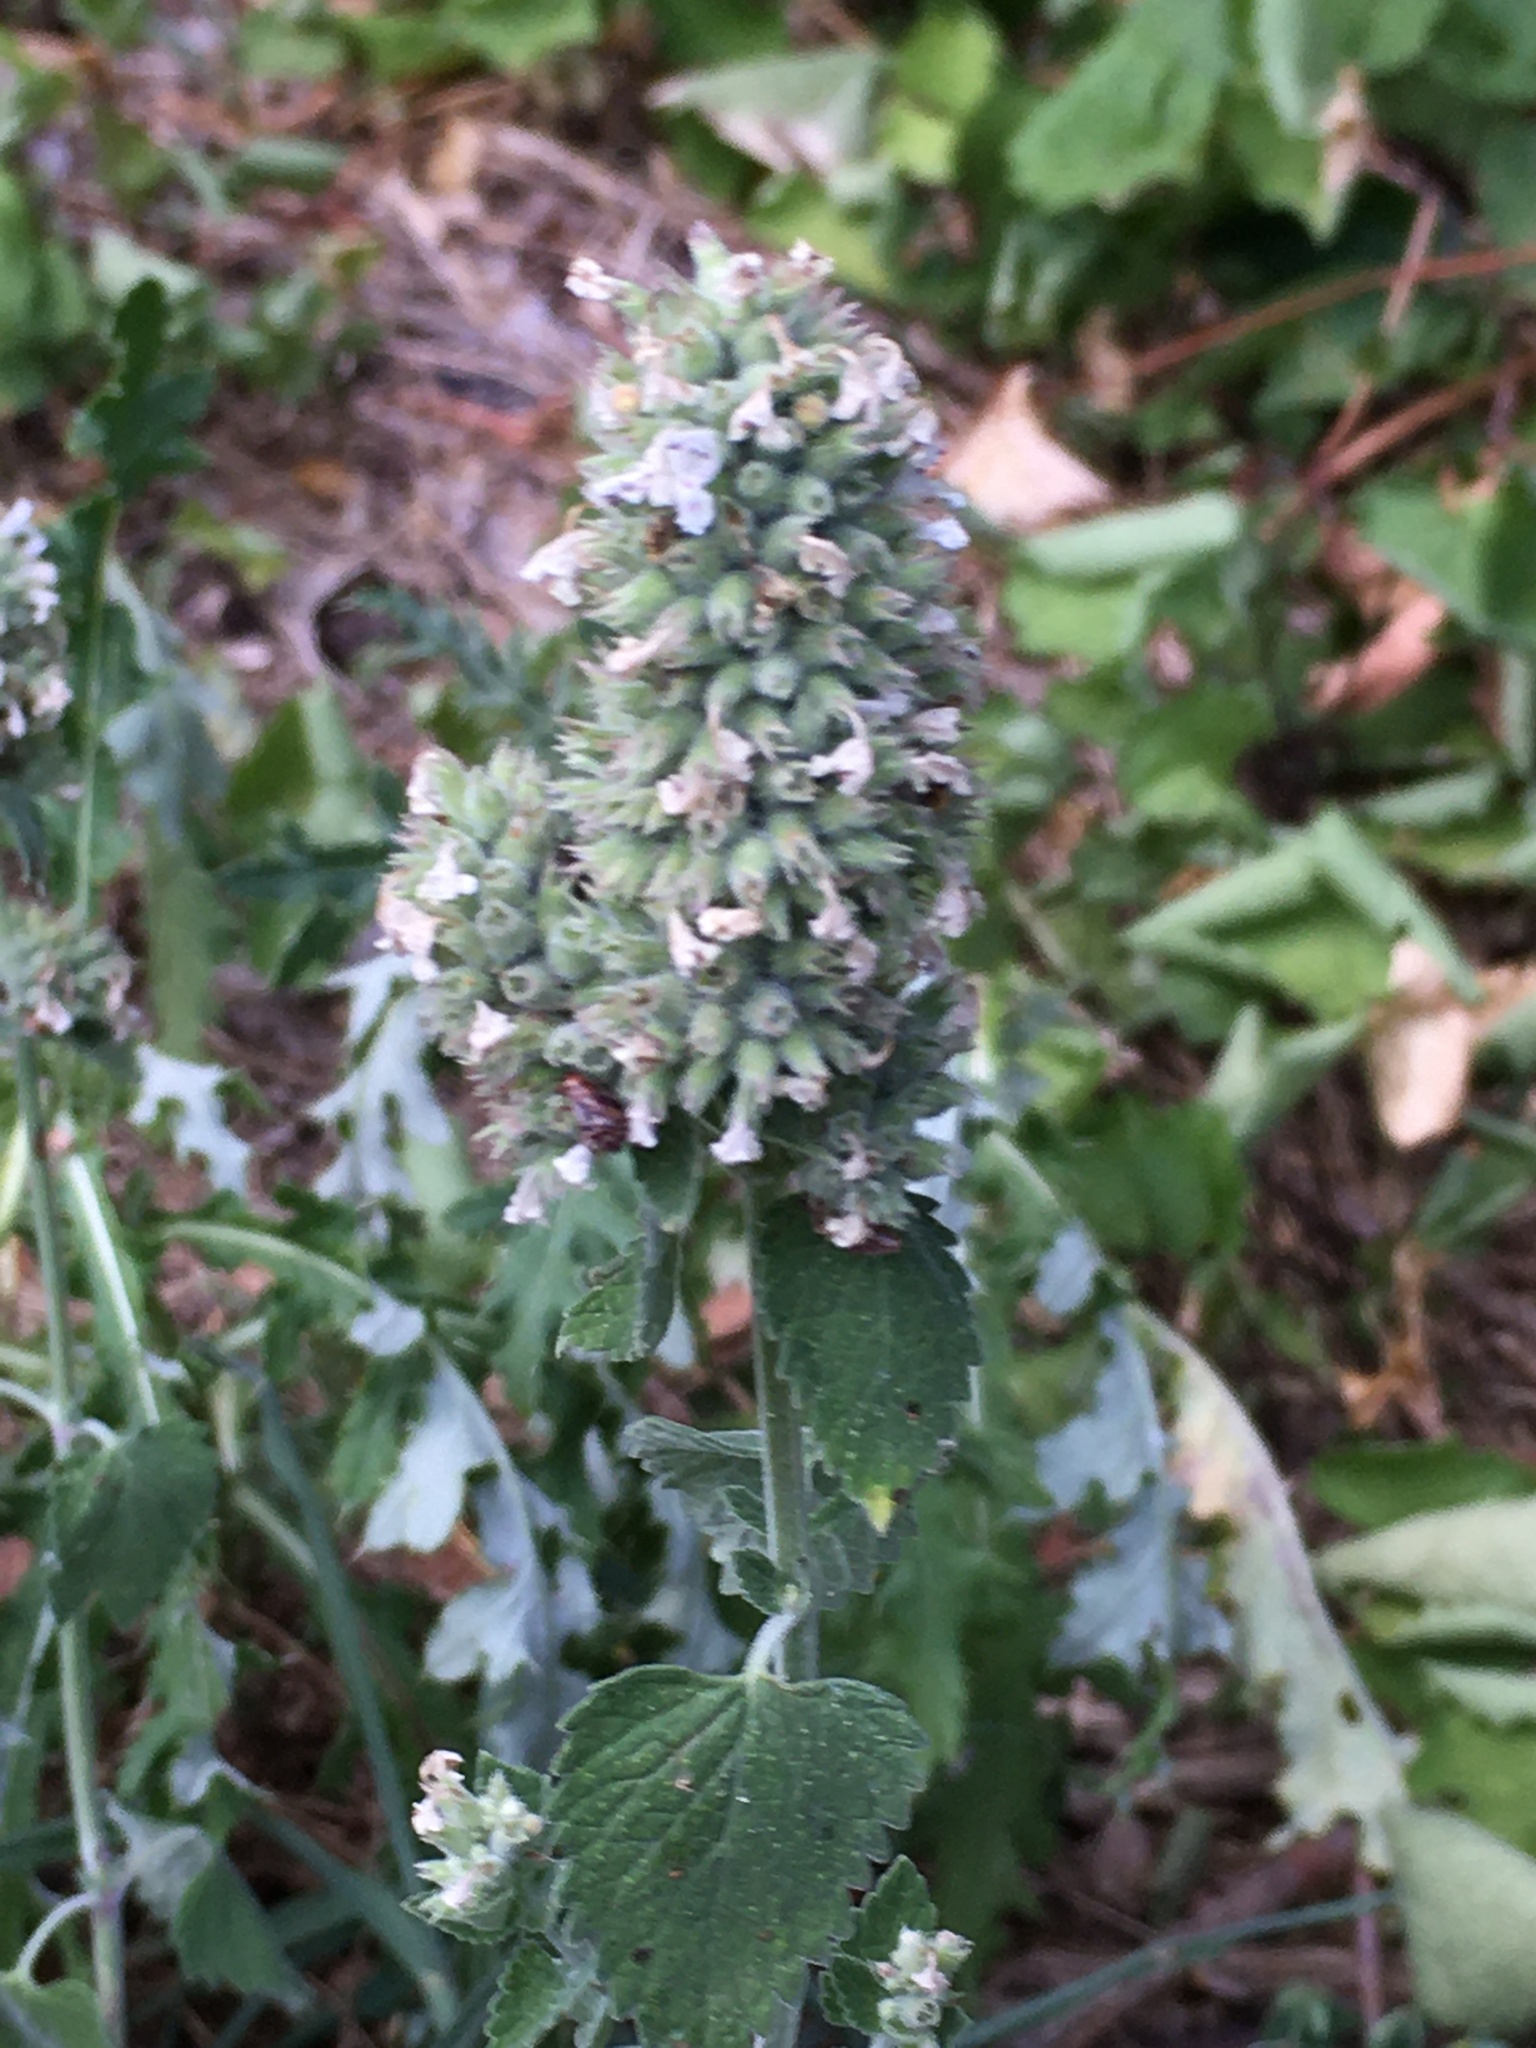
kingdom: Plantae
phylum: Tracheophyta
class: Magnoliopsida
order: Lamiales
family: Lamiaceae
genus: Nepeta
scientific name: Nepeta cataria
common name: Catnip
